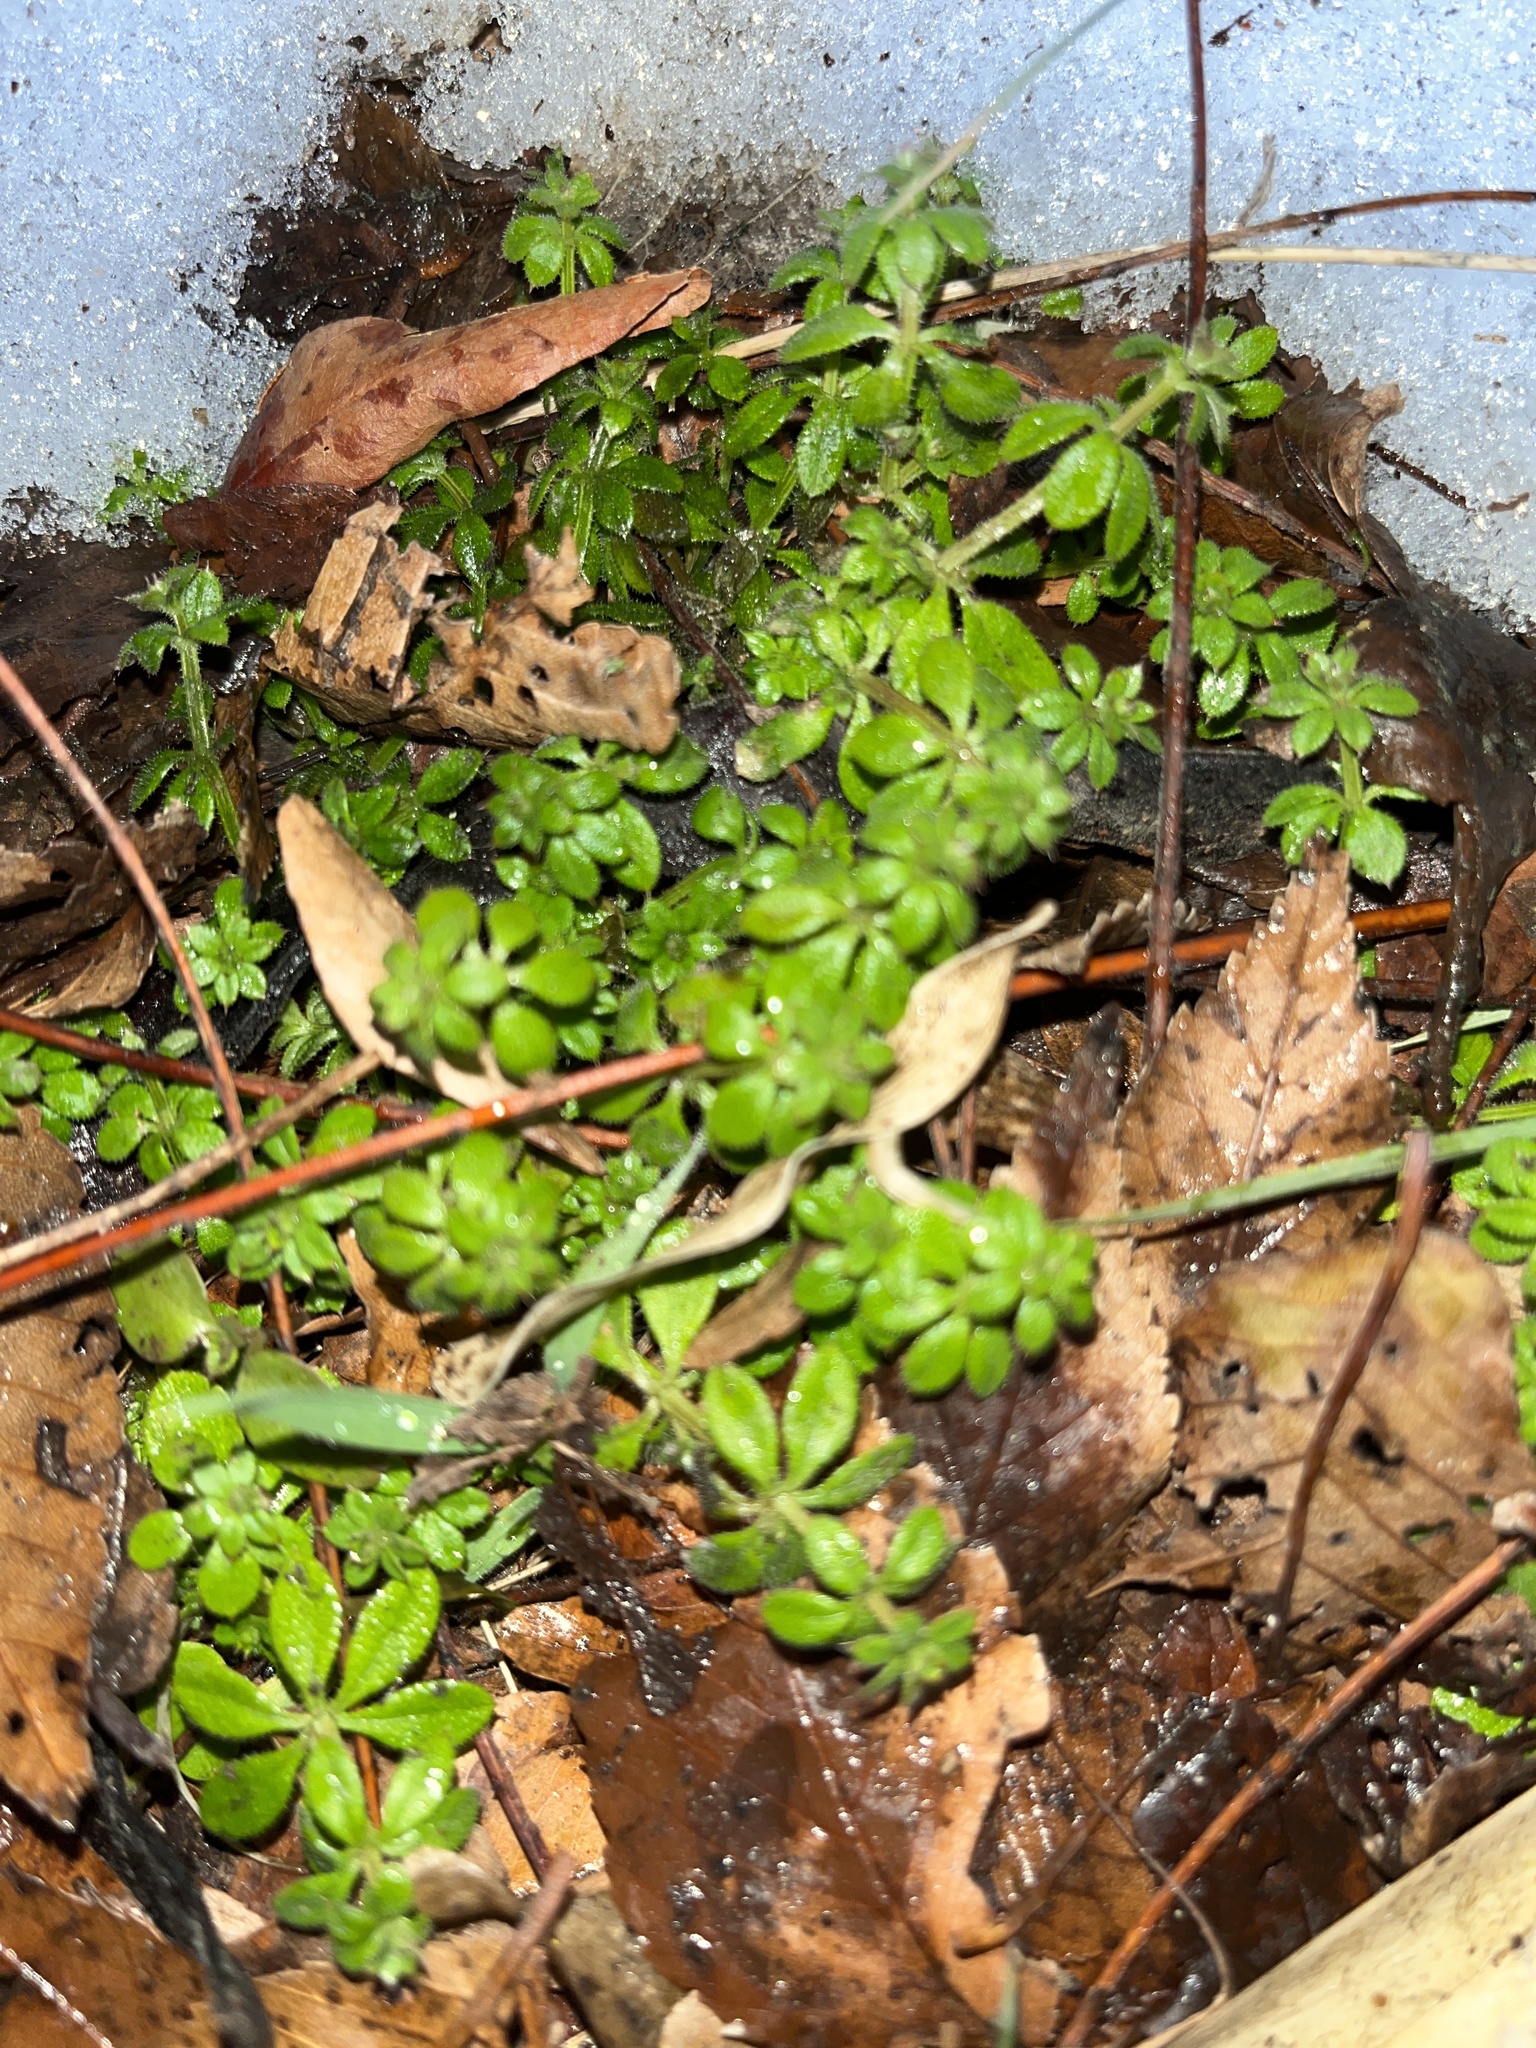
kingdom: Plantae
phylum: Tracheophyta
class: Magnoliopsida
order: Gentianales
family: Rubiaceae
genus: Galium
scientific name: Galium aparine
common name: Cleavers
